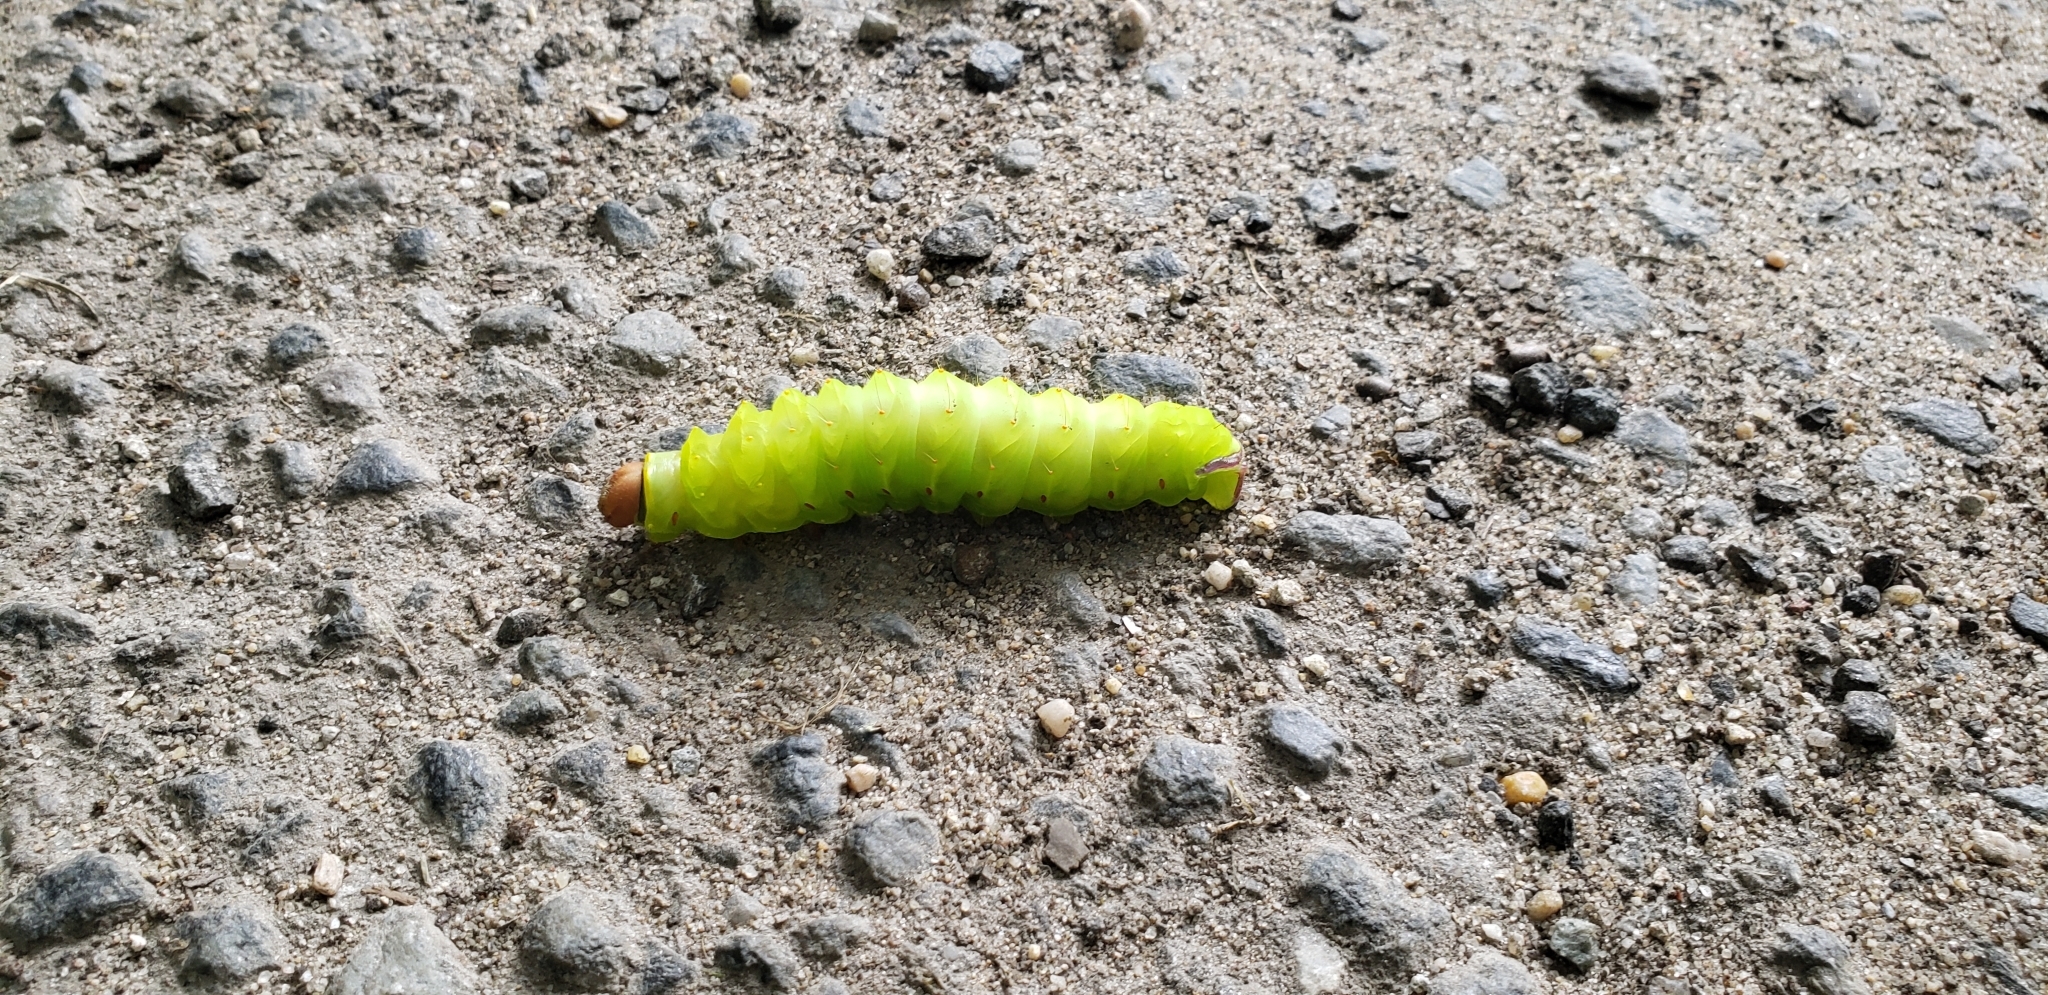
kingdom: Animalia
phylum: Arthropoda
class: Insecta
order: Lepidoptera
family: Saturniidae
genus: Antheraea
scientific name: Antheraea polyphemus
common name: Polyphemus moth
